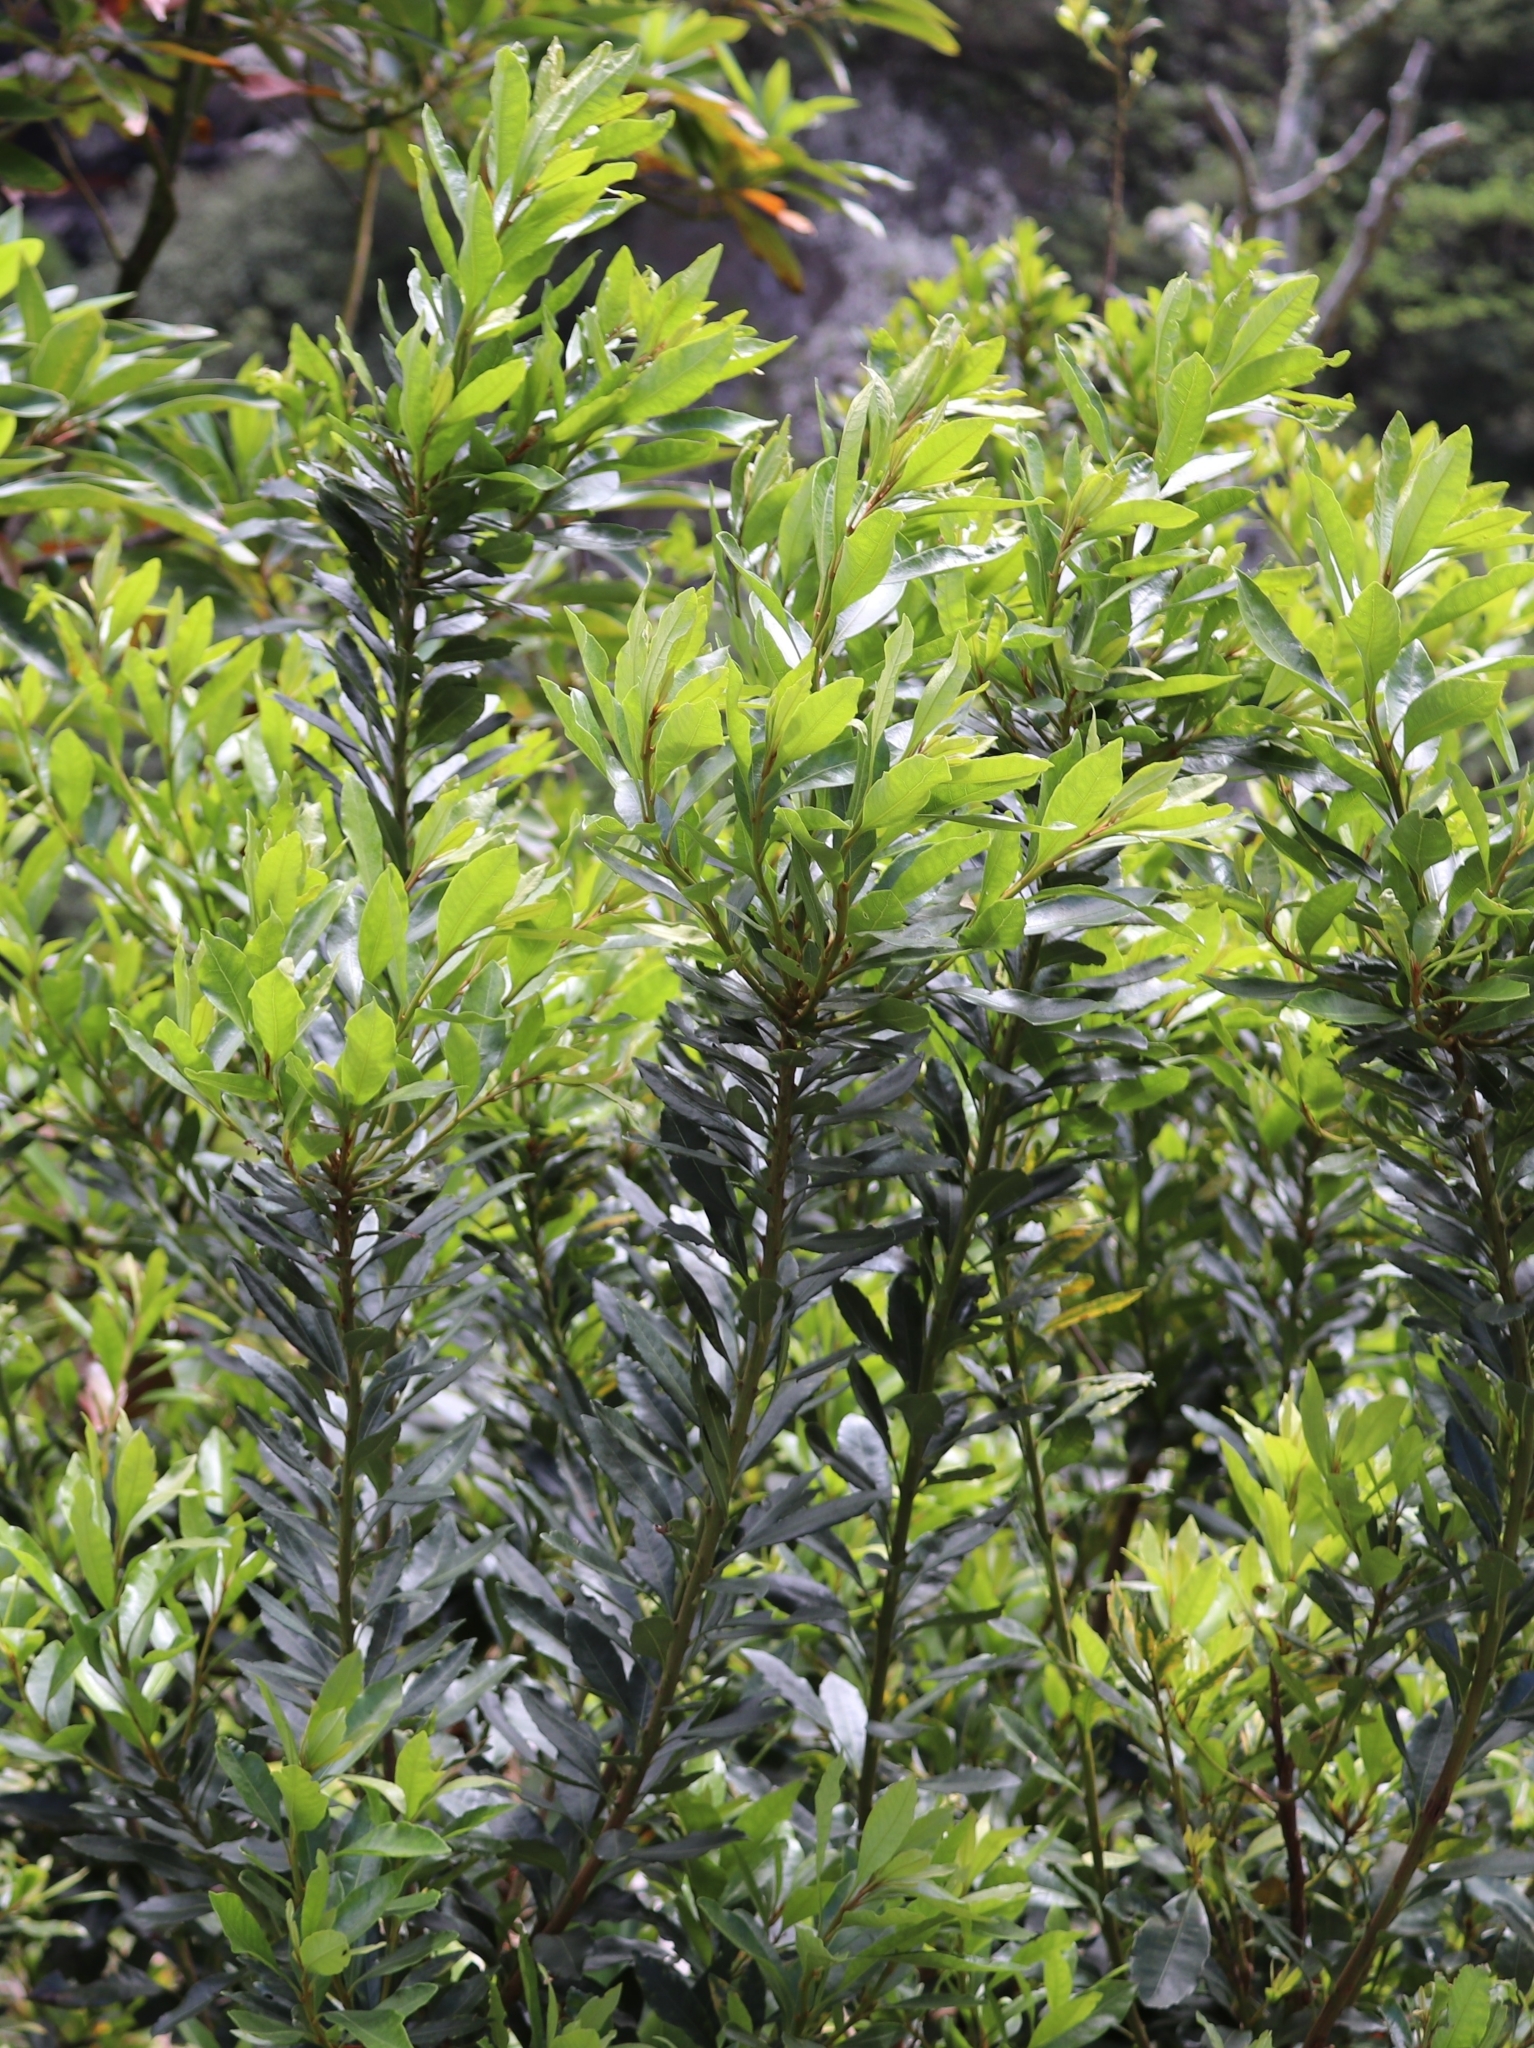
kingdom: Plantae
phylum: Tracheophyta
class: Magnoliopsida
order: Fagales
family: Myricaceae
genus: Morella
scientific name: Morella faya
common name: Firetree
